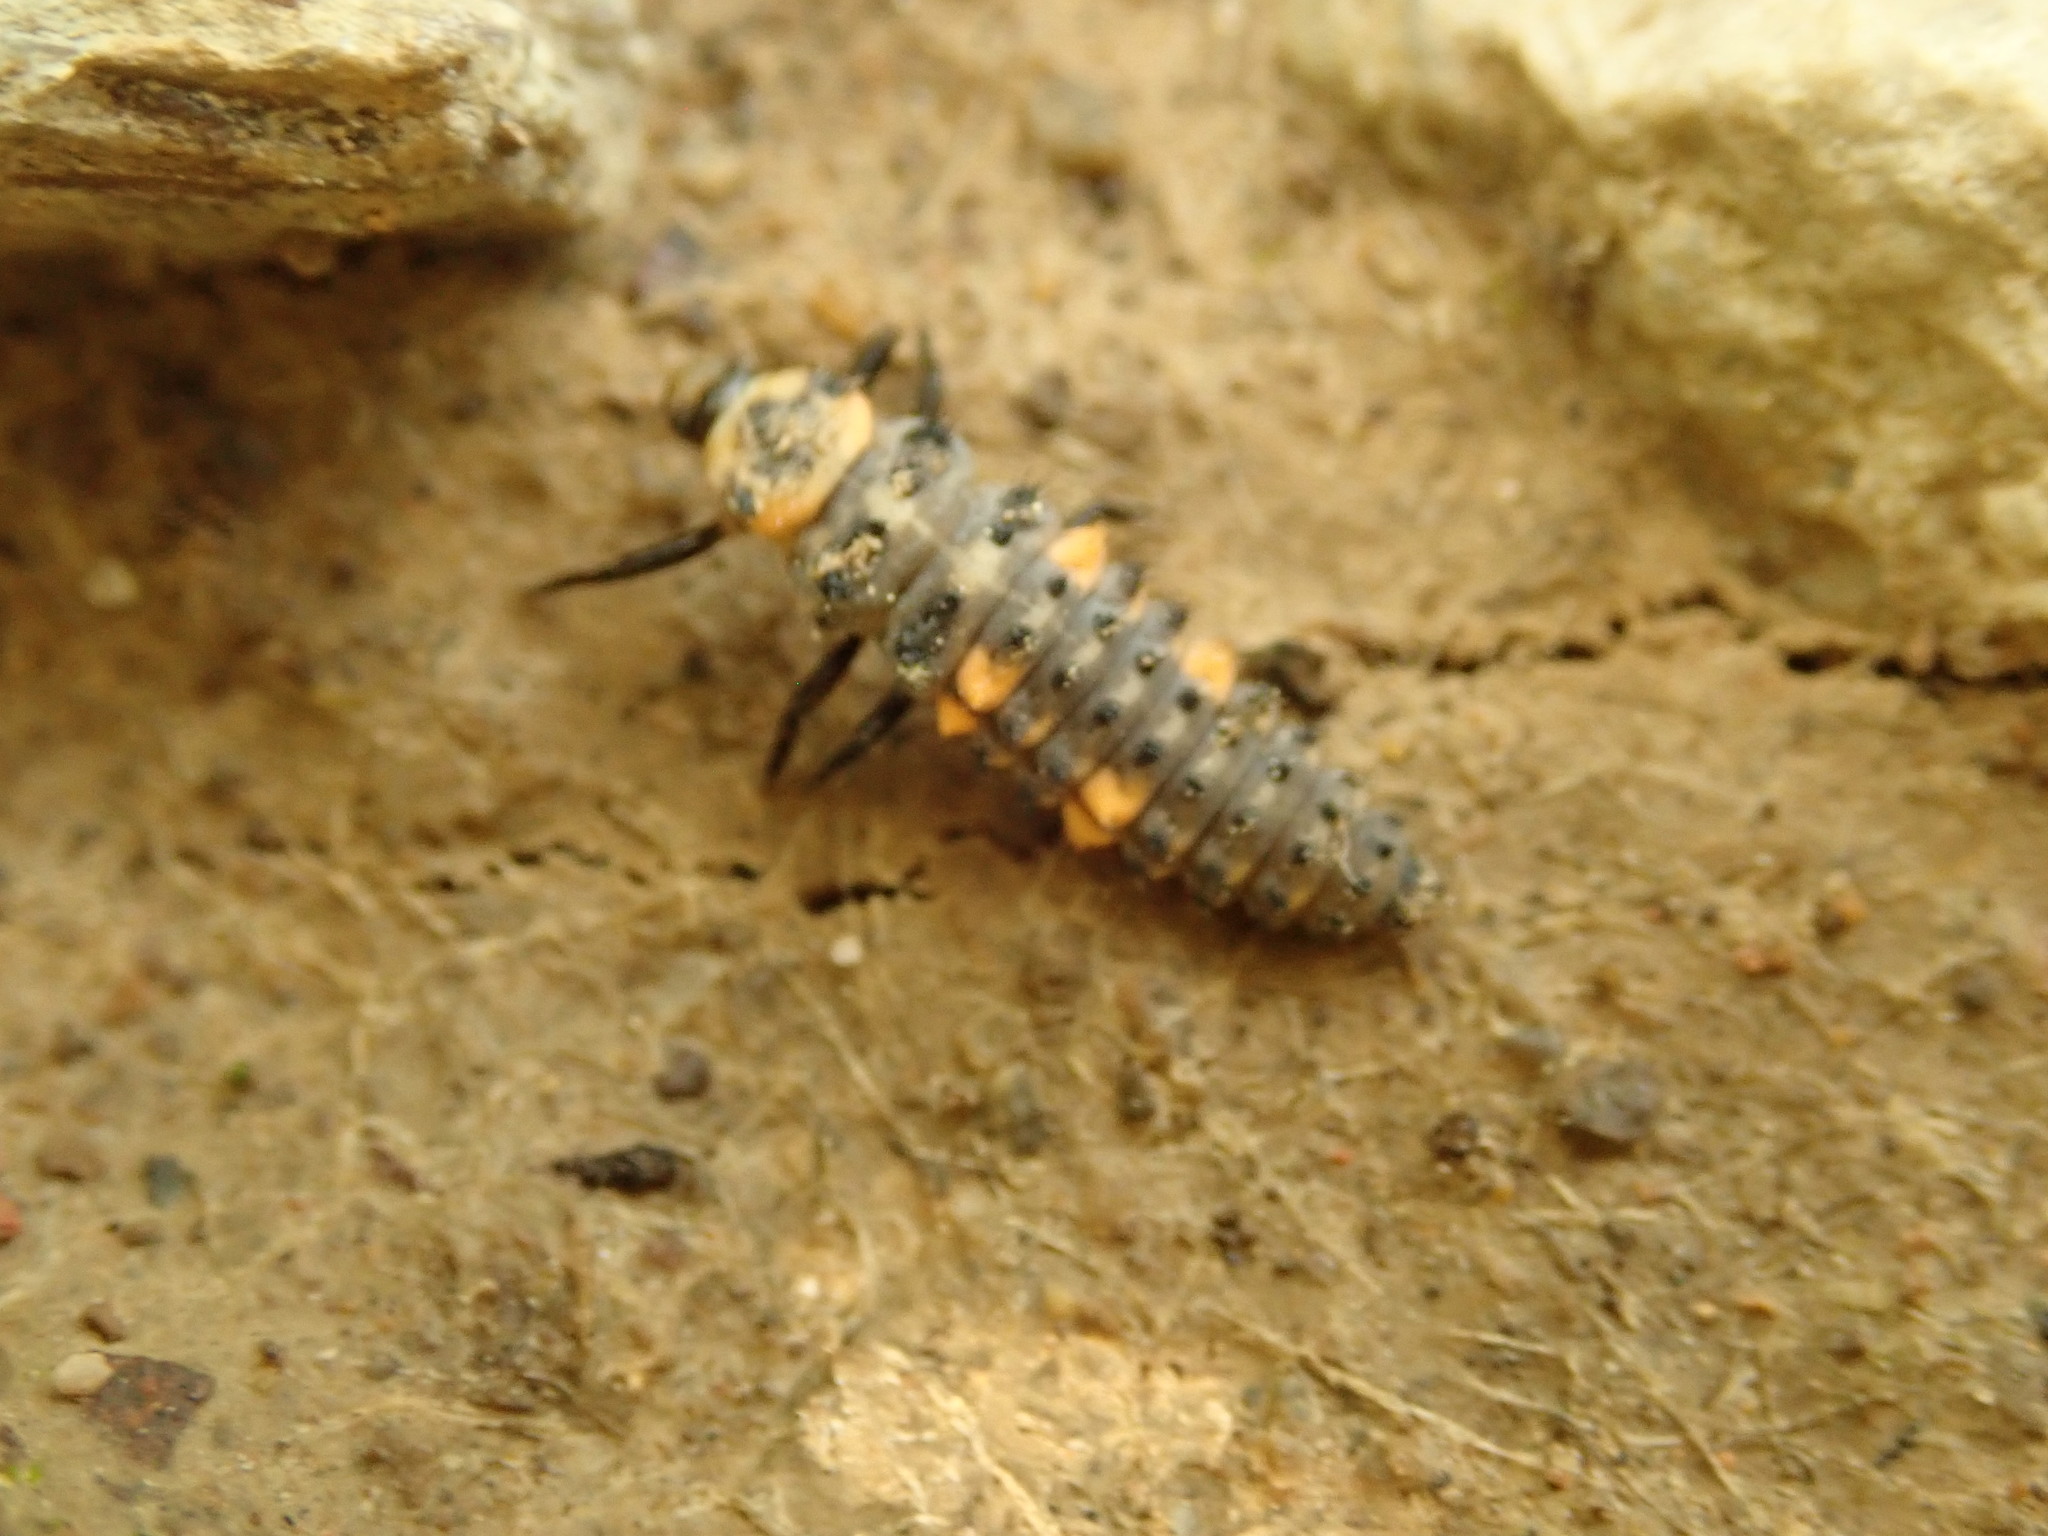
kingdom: Animalia
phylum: Arthropoda
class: Insecta
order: Coleoptera
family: Coccinellidae
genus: Coccinella
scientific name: Coccinella septempunctata
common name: Sevenspotted lady beetle
